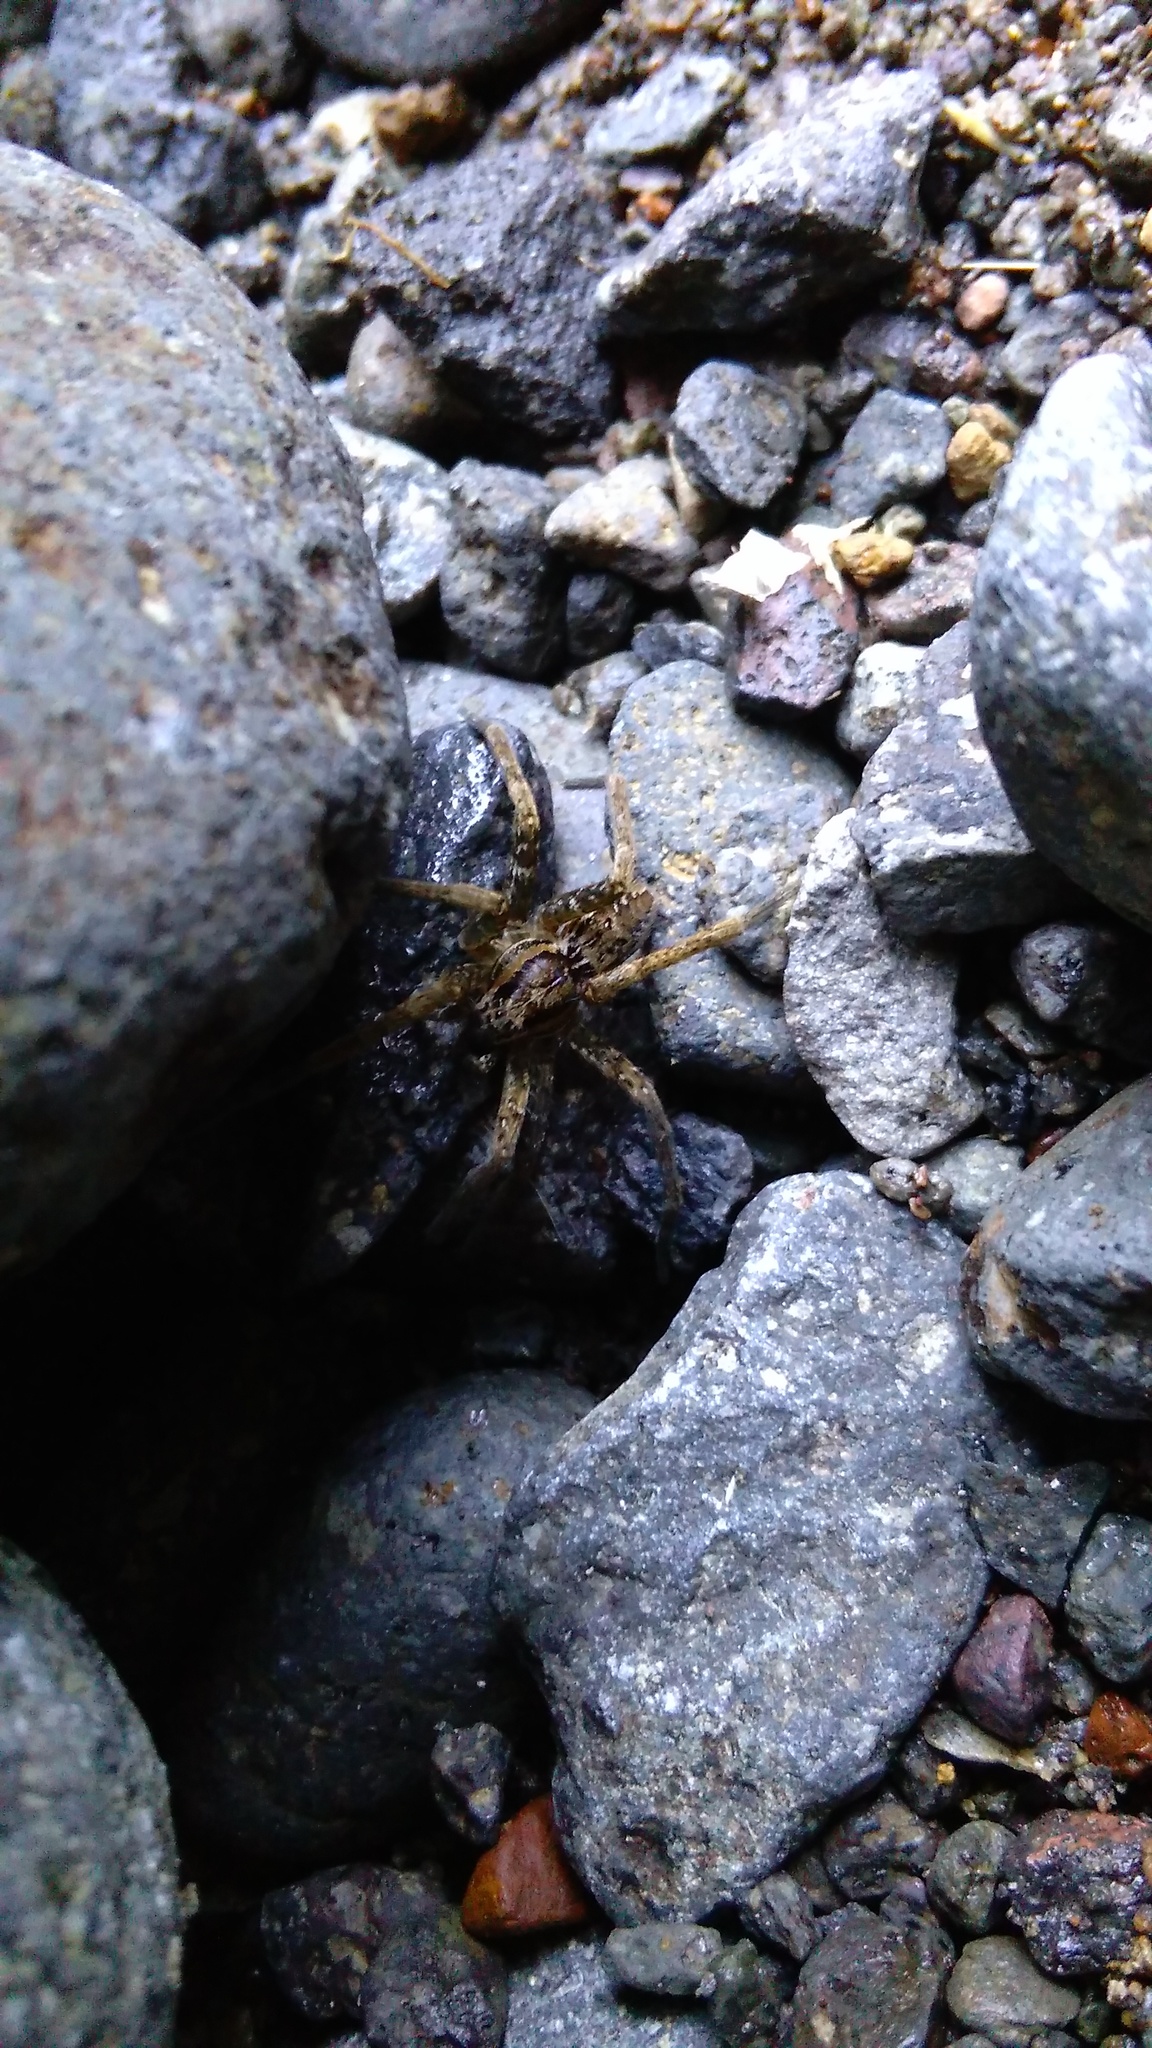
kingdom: Animalia
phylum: Arthropoda
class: Arachnida
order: Araneae
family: Pisauridae
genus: Dolomedes
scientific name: Dolomedes dondalei
